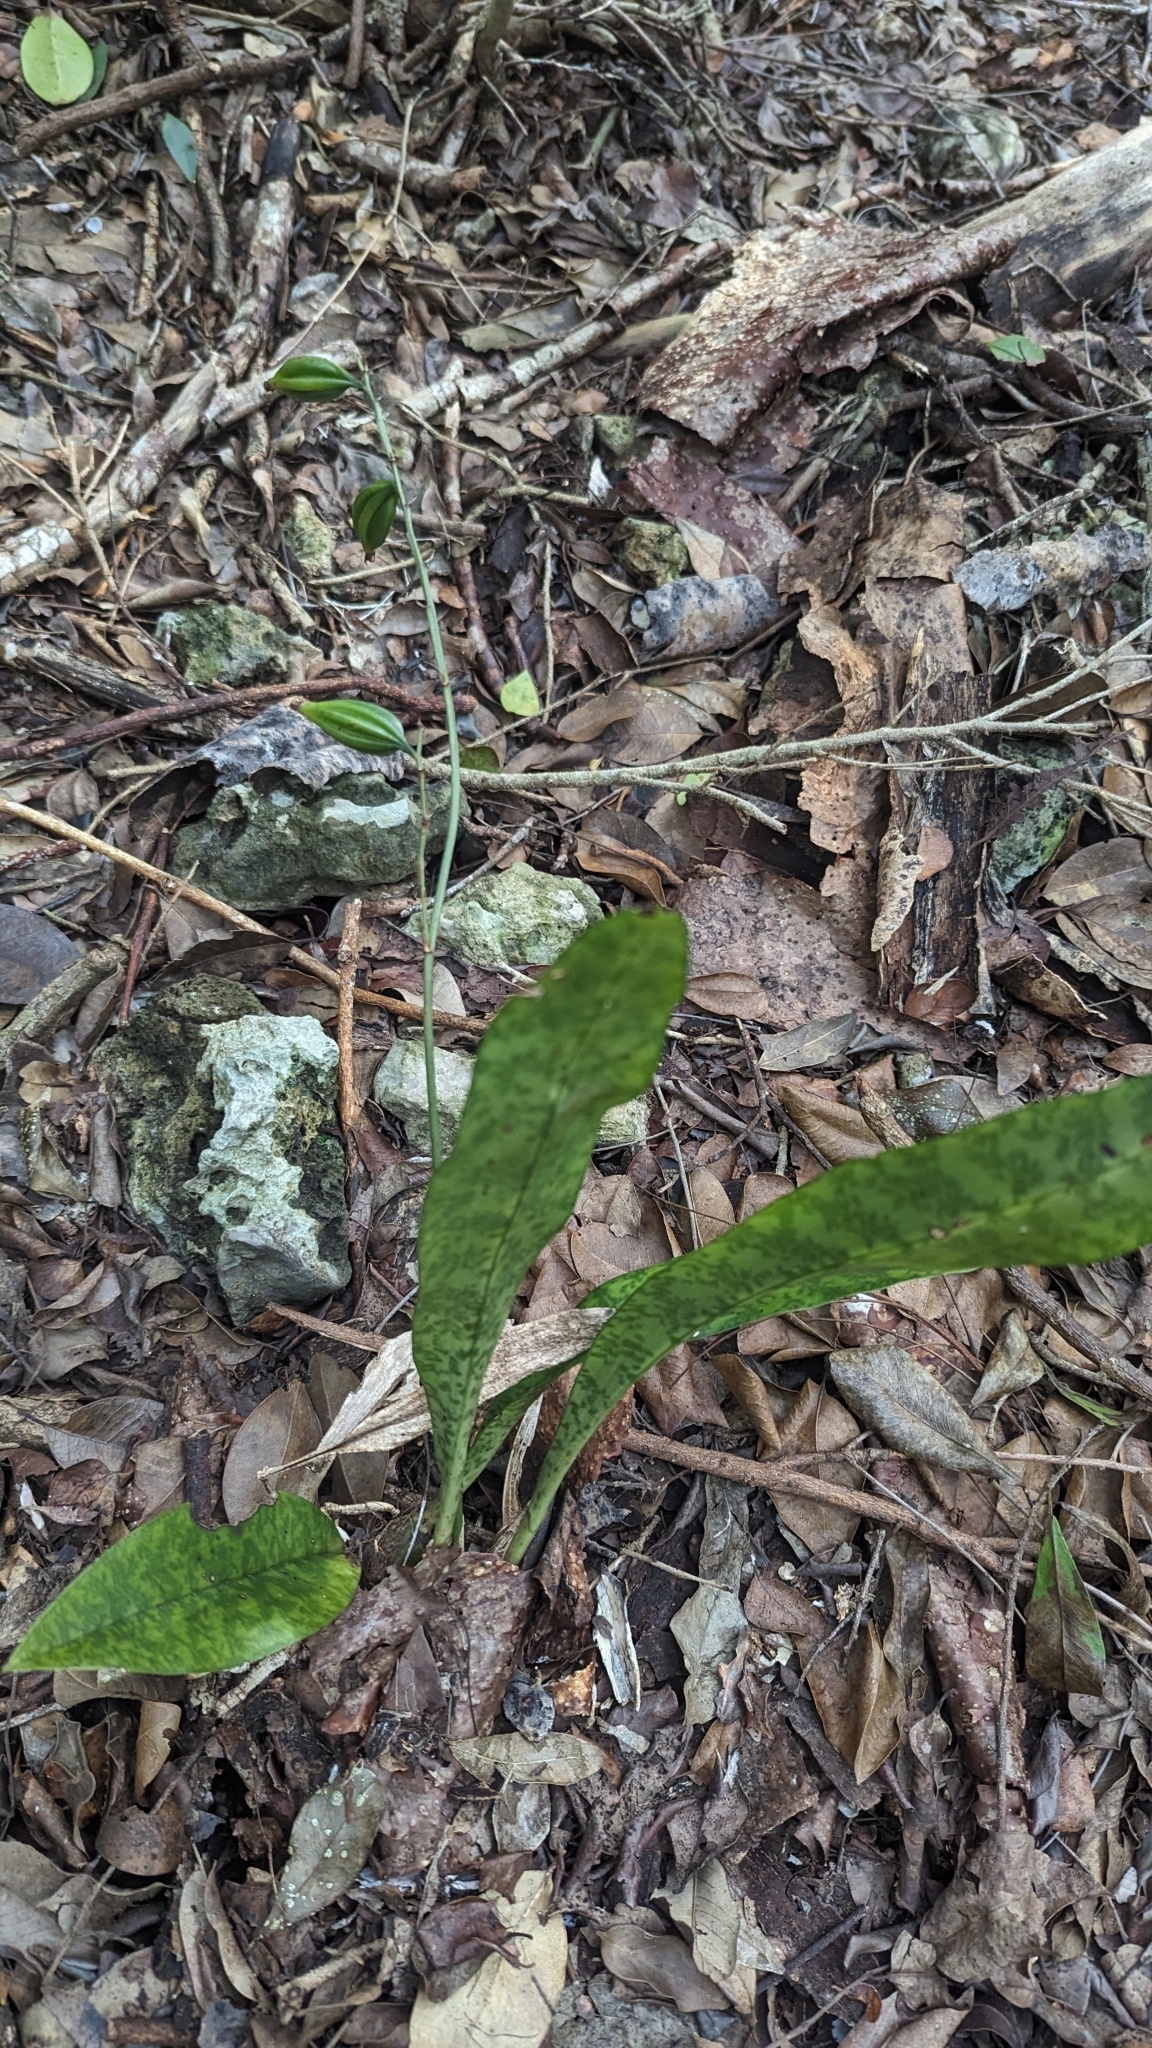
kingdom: Plantae
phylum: Tracheophyta
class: Liliopsida
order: Asparagales
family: Orchidaceae
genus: Eulophia
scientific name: Eulophia maculata
